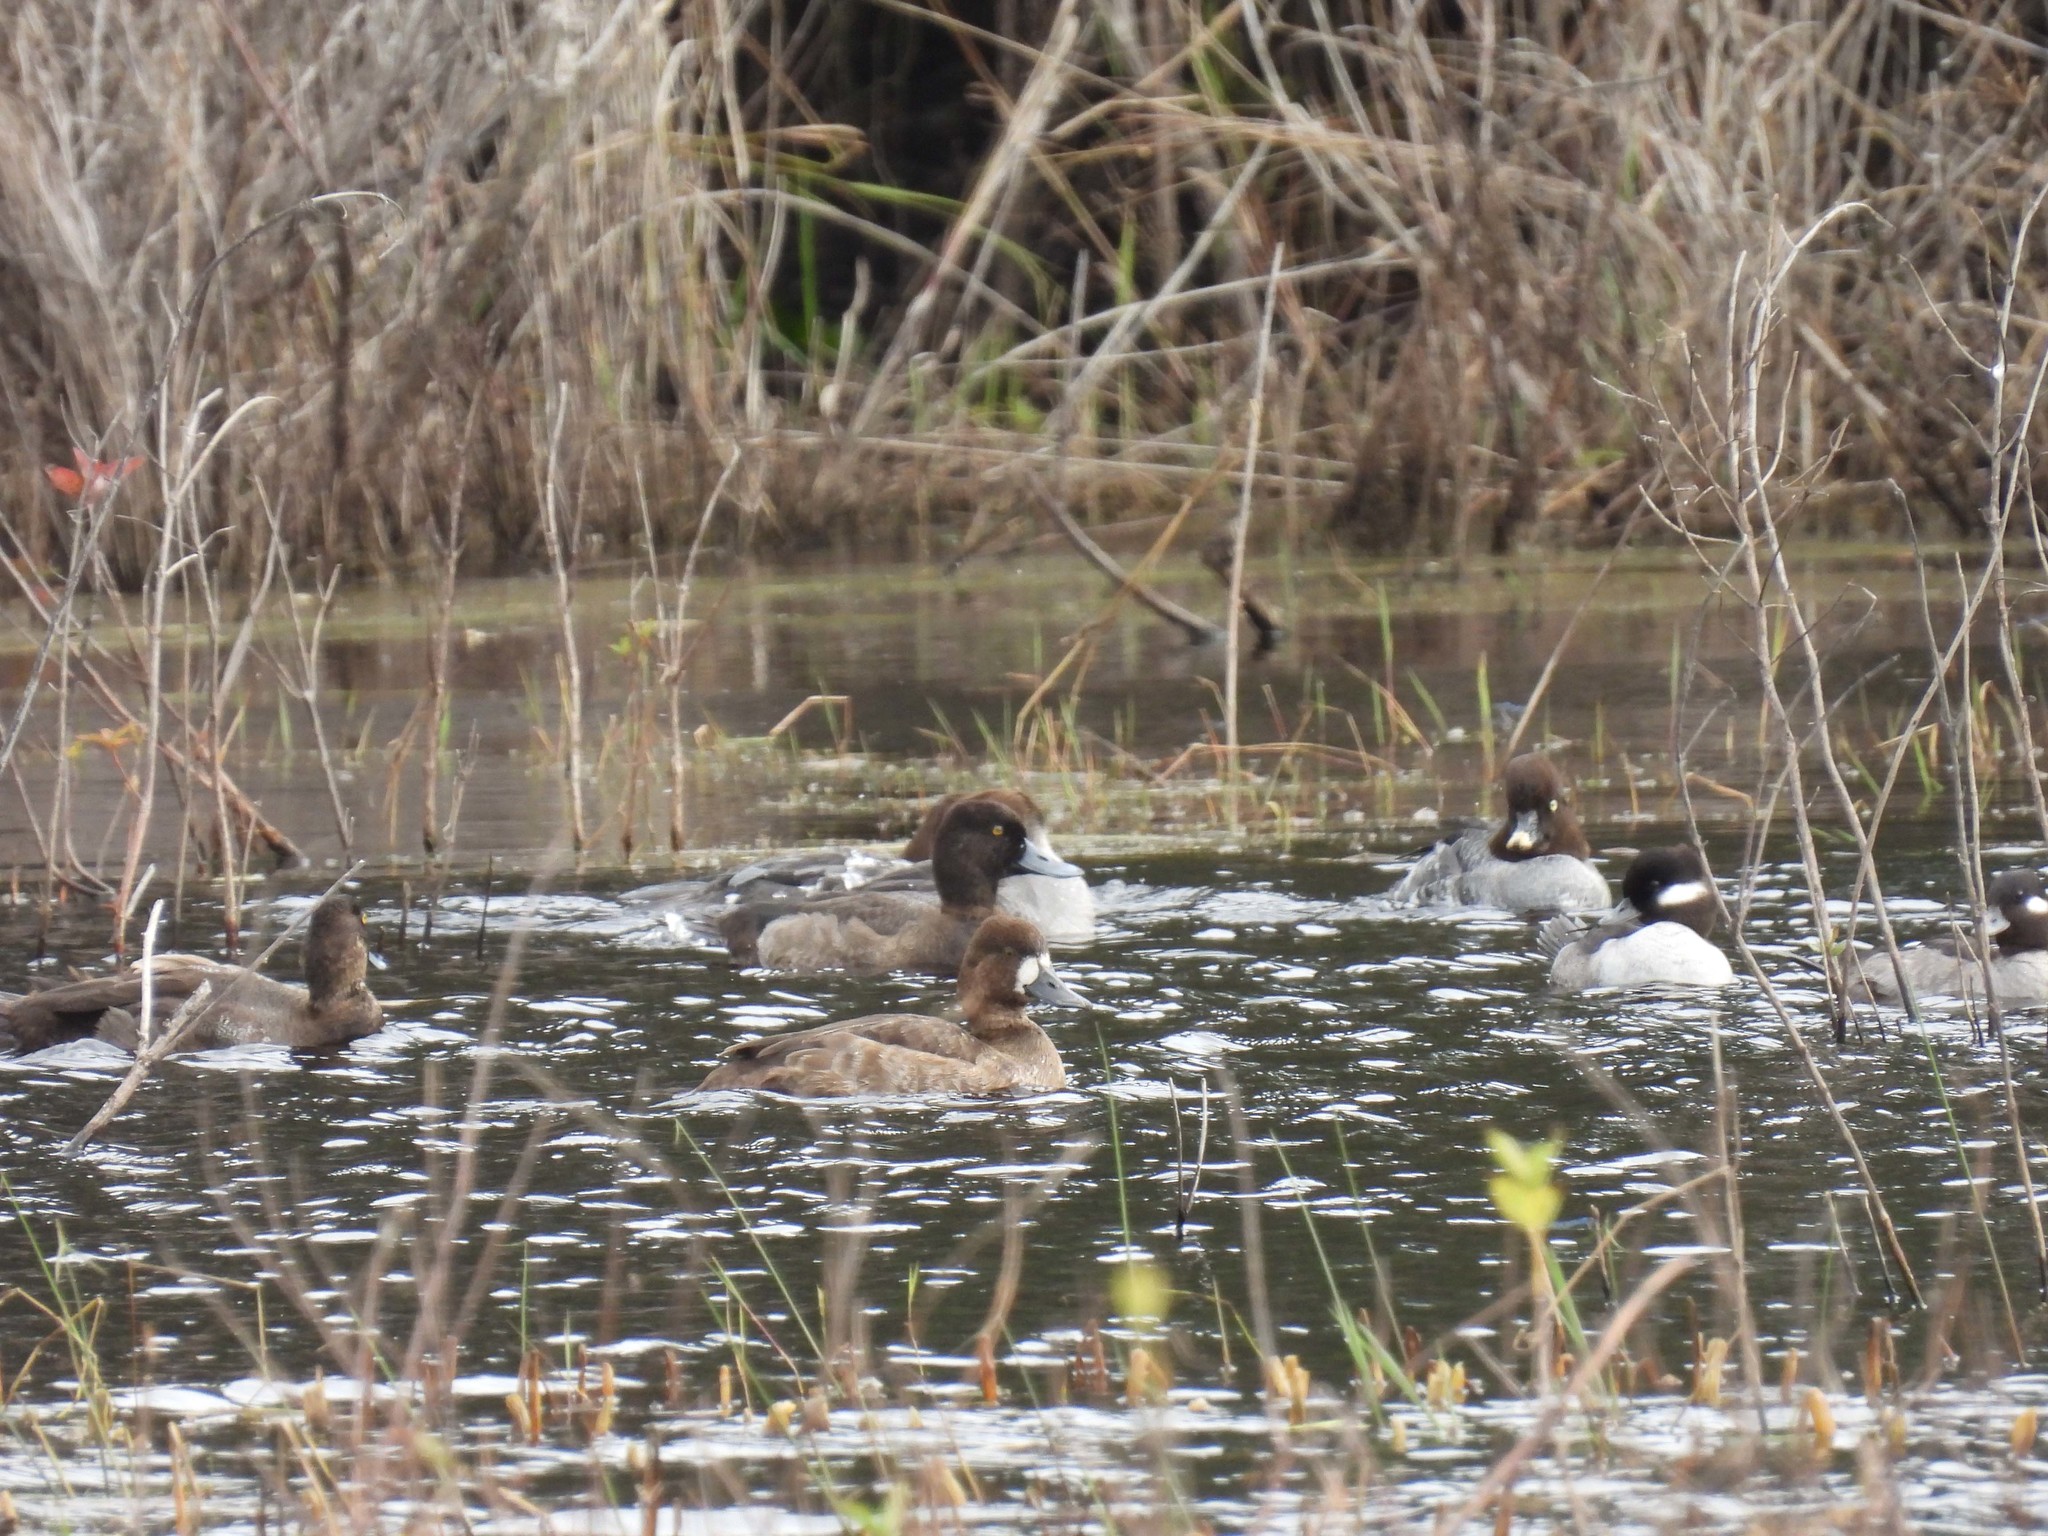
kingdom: Animalia
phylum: Chordata
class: Aves
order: Anseriformes
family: Anatidae
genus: Bucephala
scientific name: Bucephala clangula
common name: Common goldeneye
